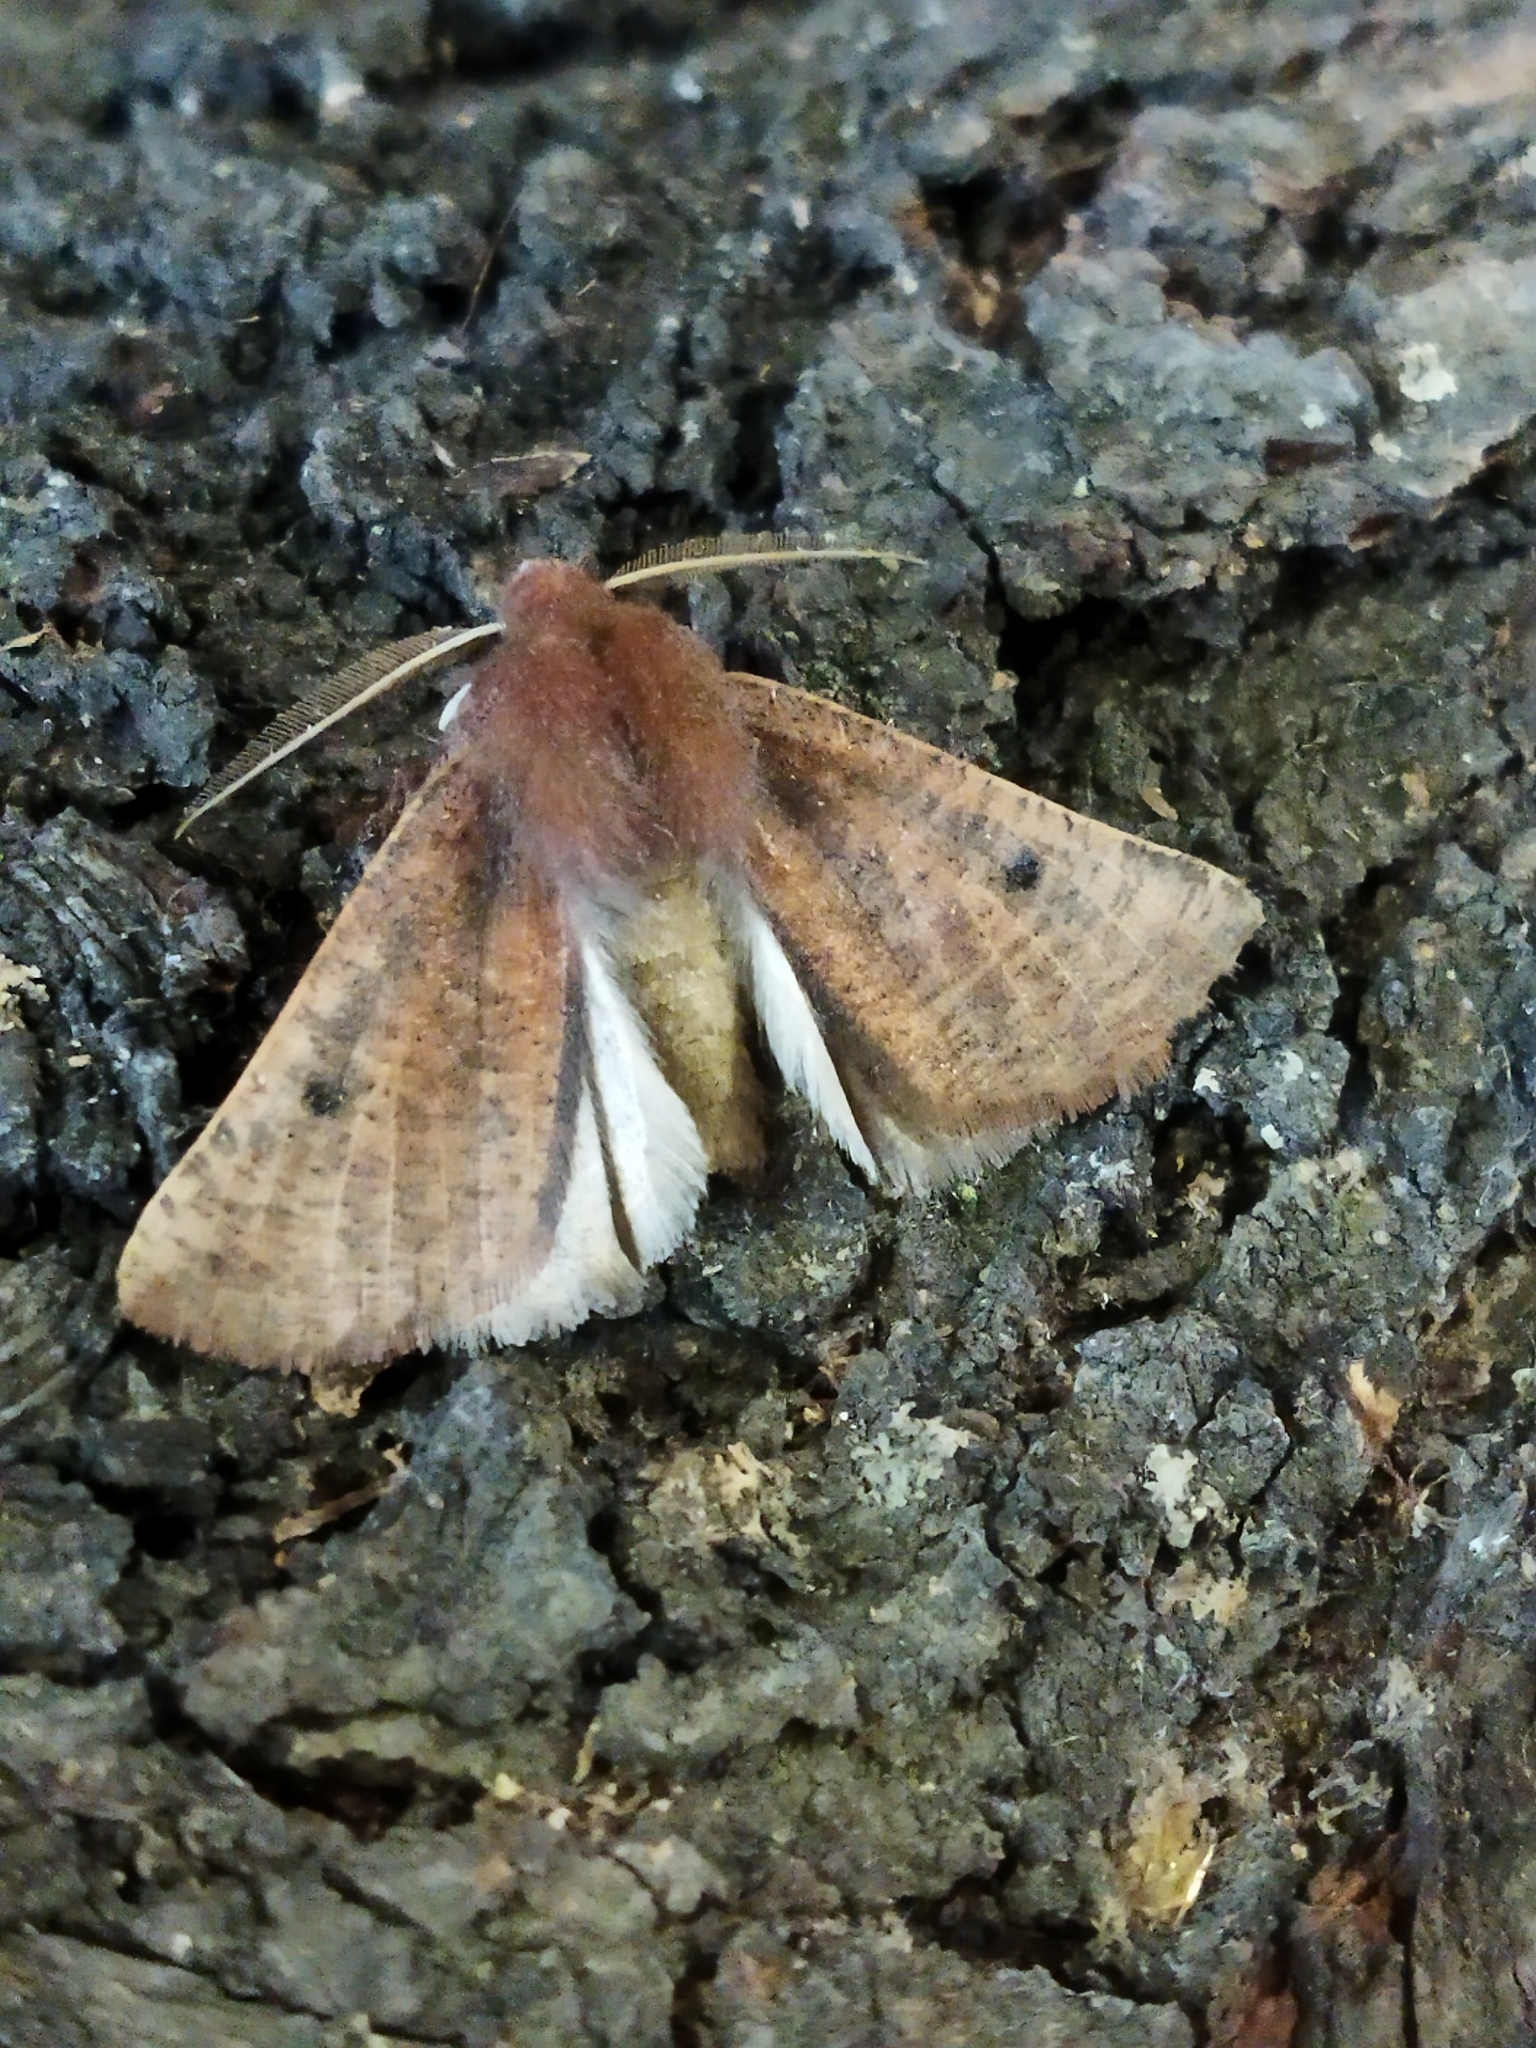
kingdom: Animalia
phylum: Arthropoda
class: Insecta
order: Lepidoptera
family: Geometridae
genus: Dasycorsa
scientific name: Dasycorsa modesta
